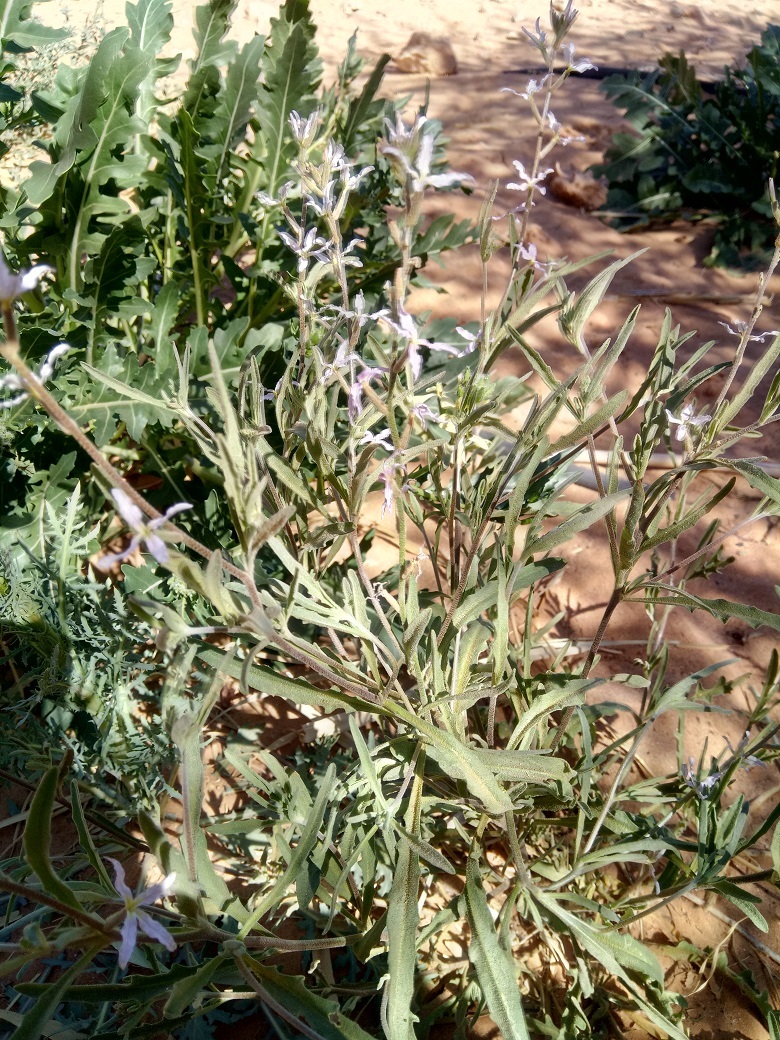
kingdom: Plantae
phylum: Tracheophyta
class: Magnoliopsida
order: Brassicales
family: Brassicaceae
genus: Matthiola
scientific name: Matthiola longipetala
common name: Night-scented stock
